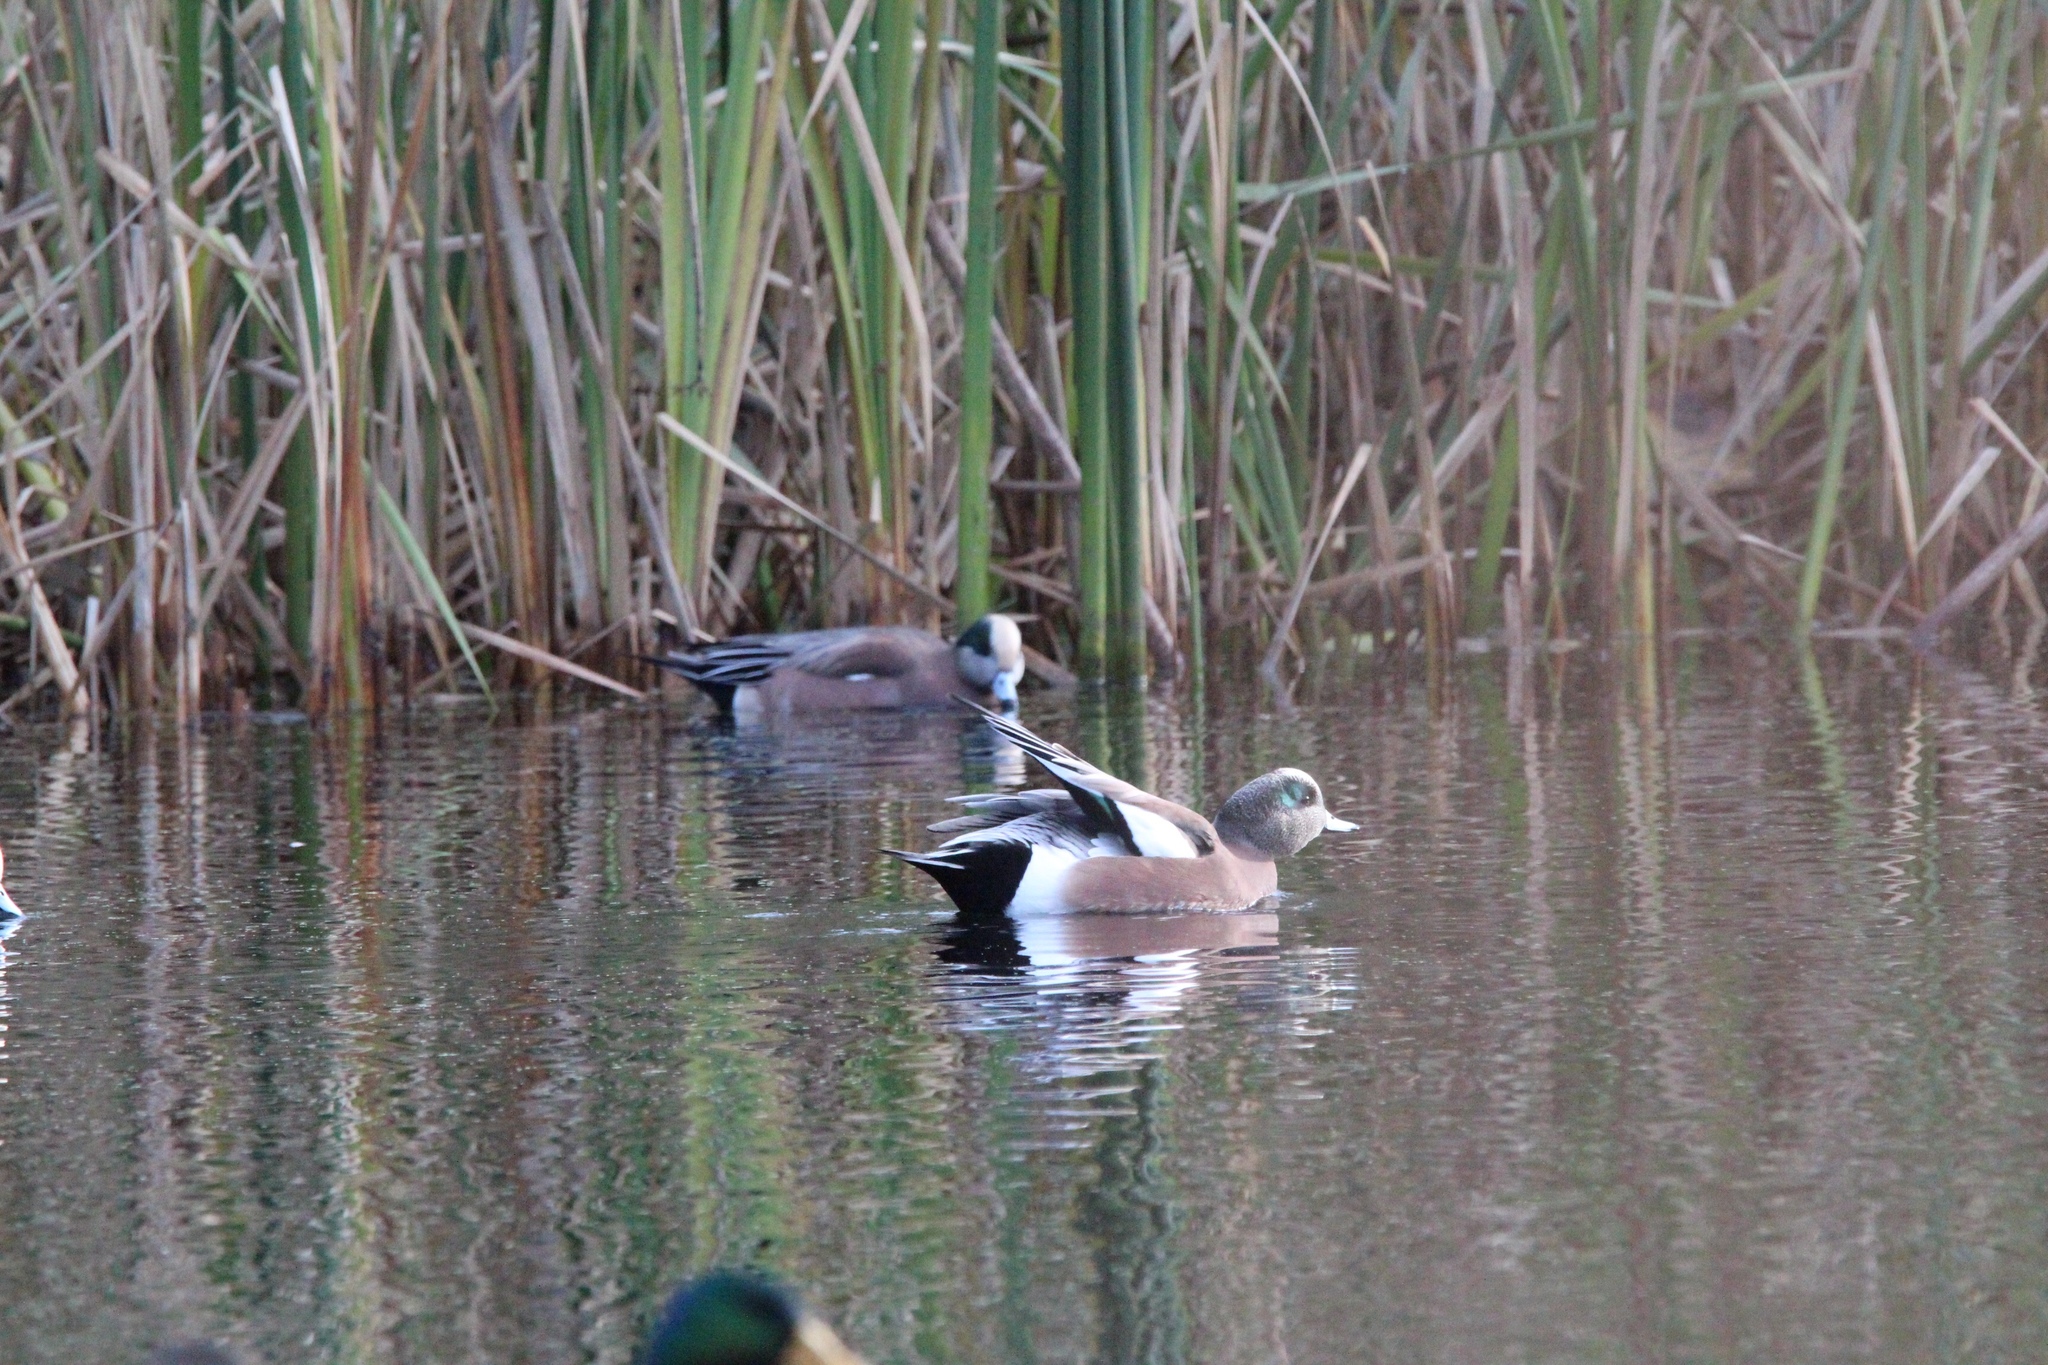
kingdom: Animalia
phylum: Chordata
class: Aves
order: Anseriformes
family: Anatidae
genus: Mareca
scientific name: Mareca americana
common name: American wigeon
